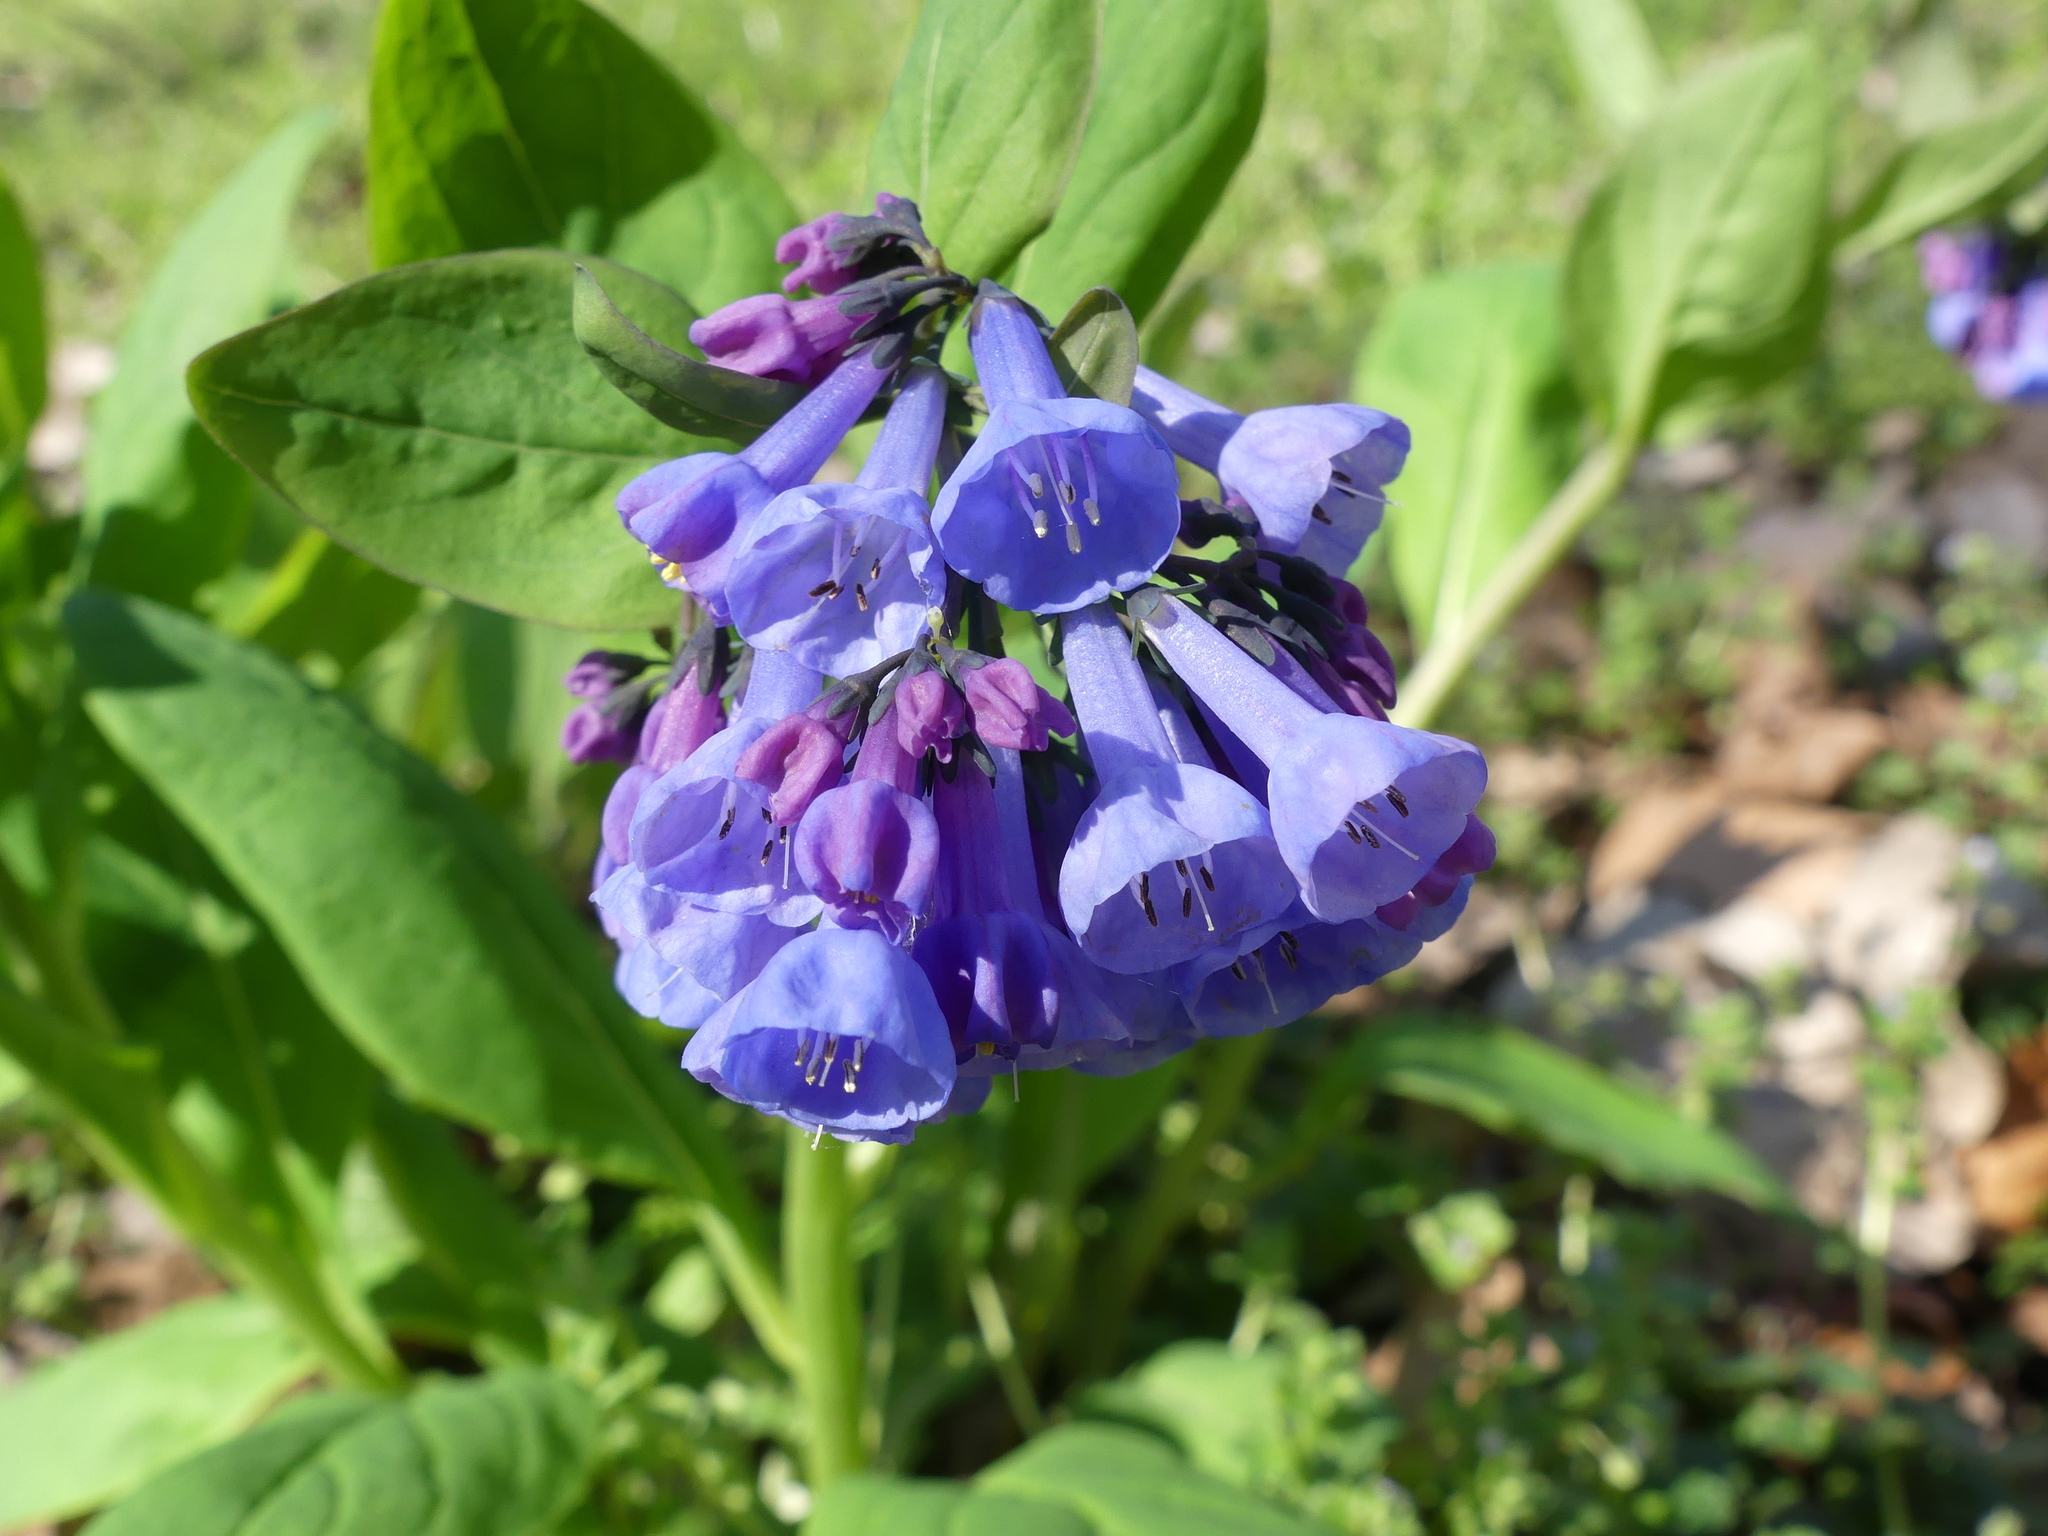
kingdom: Plantae
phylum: Tracheophyta
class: Magnoliopsida
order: Boraginales
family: Boraginaceae
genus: Mertensia
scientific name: Mertensia virginica
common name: Virginia bluebells
